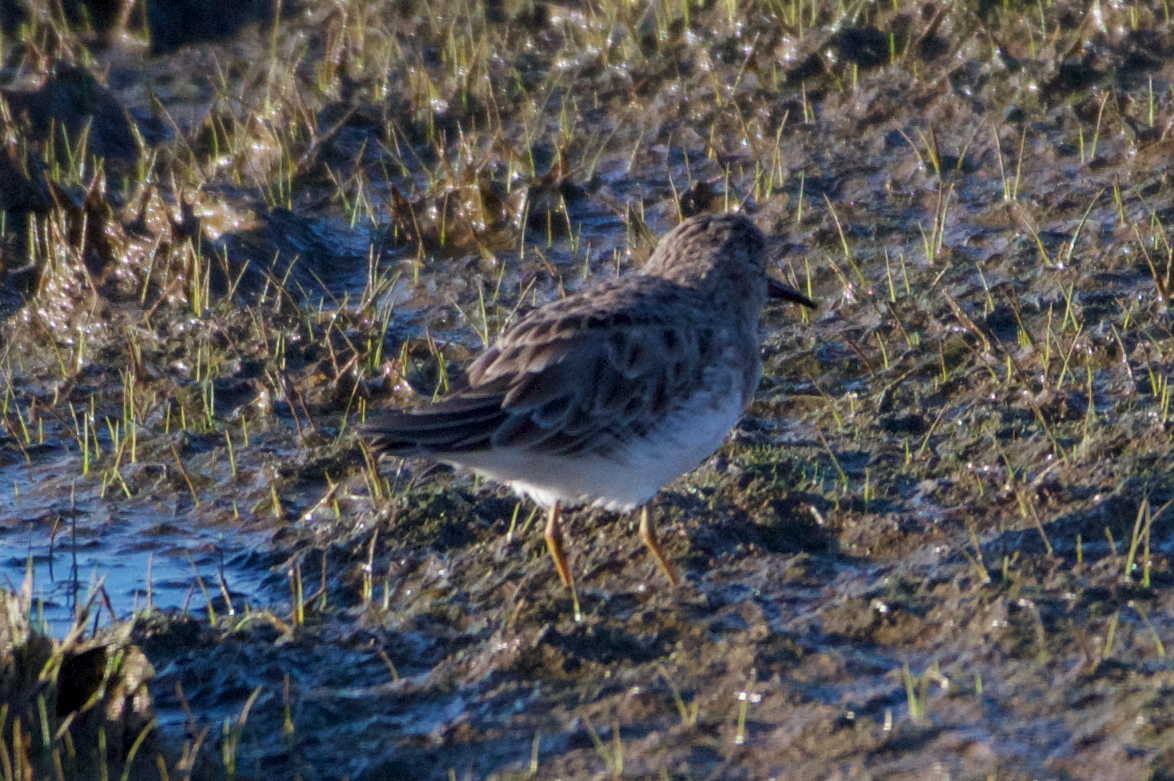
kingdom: Animalia
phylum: Chordata
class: Aves
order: Charadriiformes
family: Scolopacidae
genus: Calidris
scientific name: Calidris minutilla
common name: Least sandpiper
